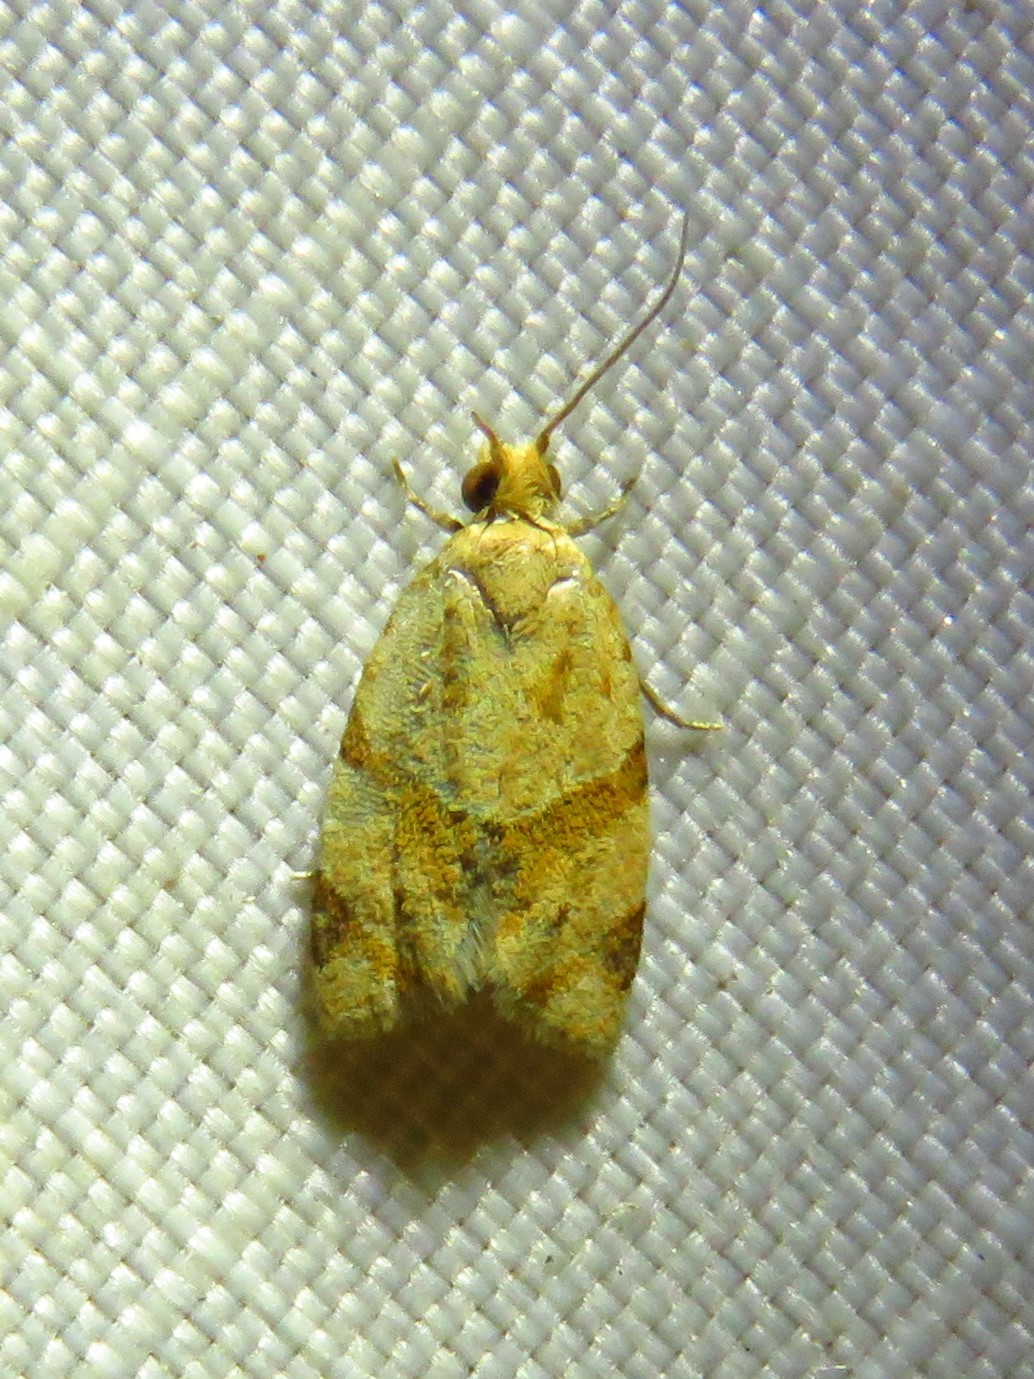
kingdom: Animalia
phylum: Arthropoda
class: Insecta
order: Lepidoptera
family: Tortricidae
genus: Clepsis
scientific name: Clepsis peritana
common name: Garden tortrix
